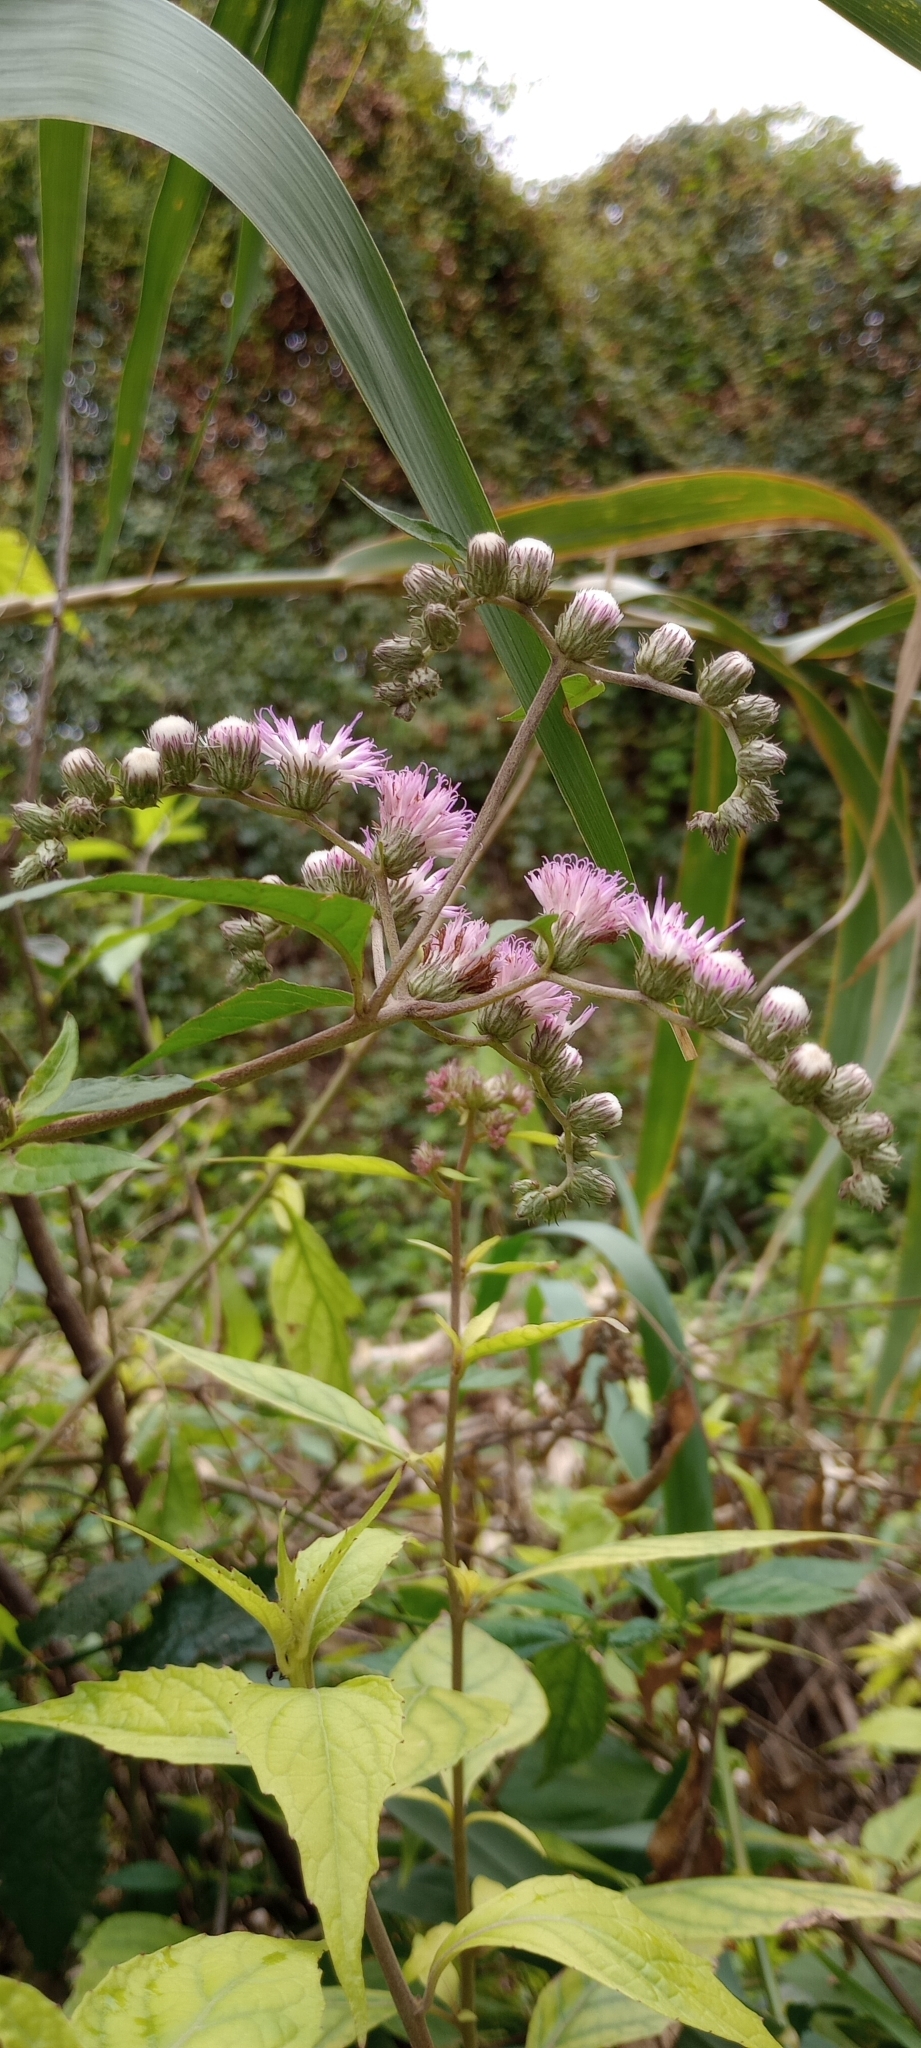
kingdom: Plantae
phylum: Tracheophyta
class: Magnoliopsida
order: Asterales
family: Asteraceae
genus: Cyrtocymura
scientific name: Cyrtocymura scorpioides
